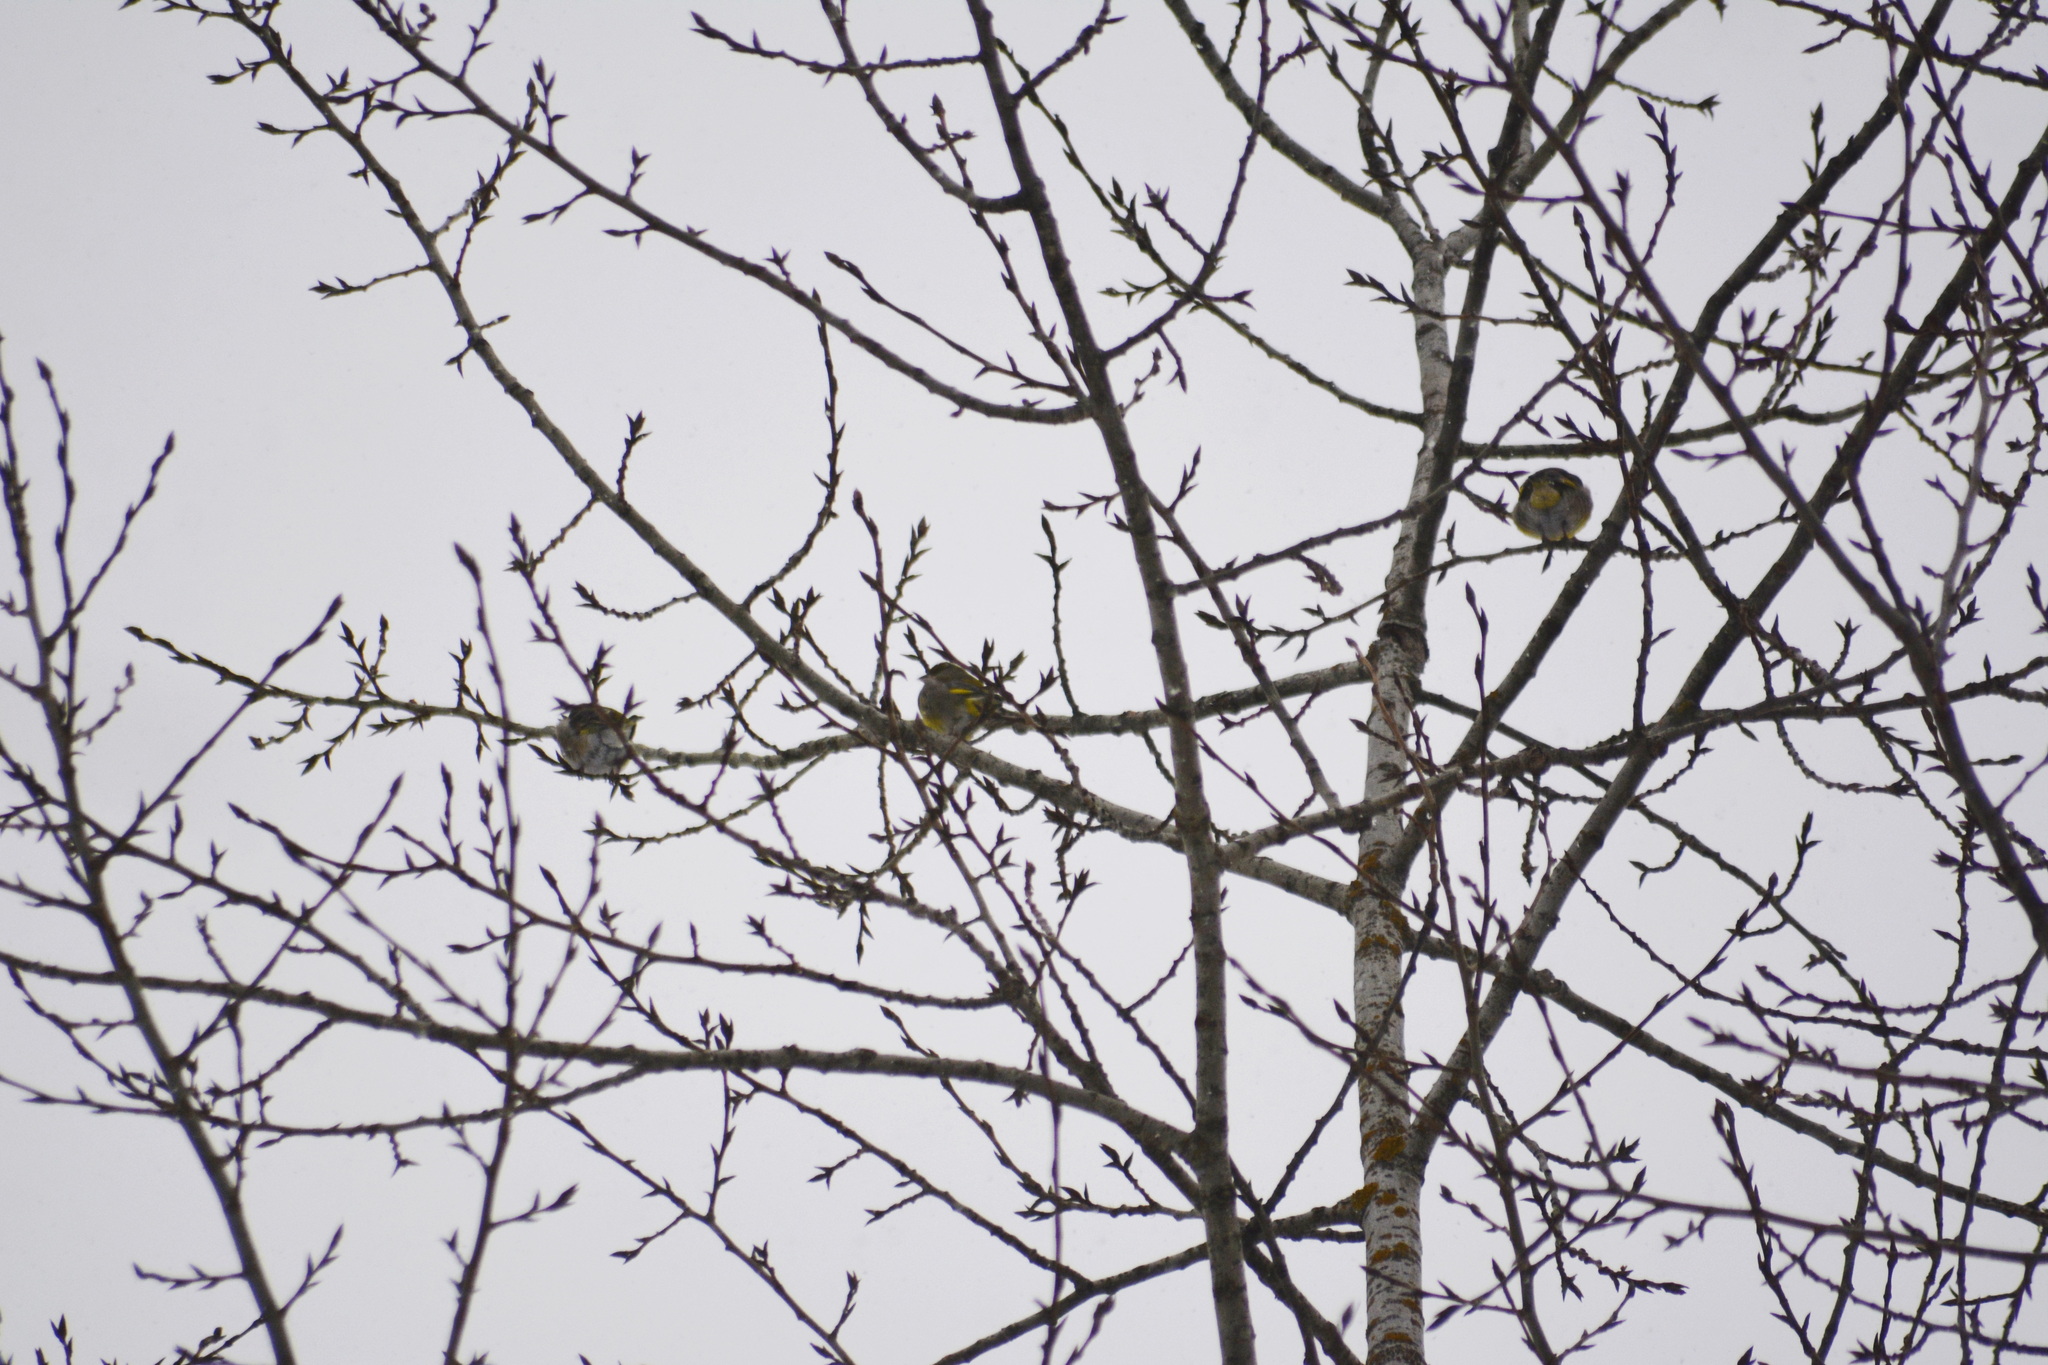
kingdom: Animalia
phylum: Chordata
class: Aves
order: Passeriformes
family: Fringillidae
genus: Spinus
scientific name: Spinus spinus
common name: Eurasian siskin
